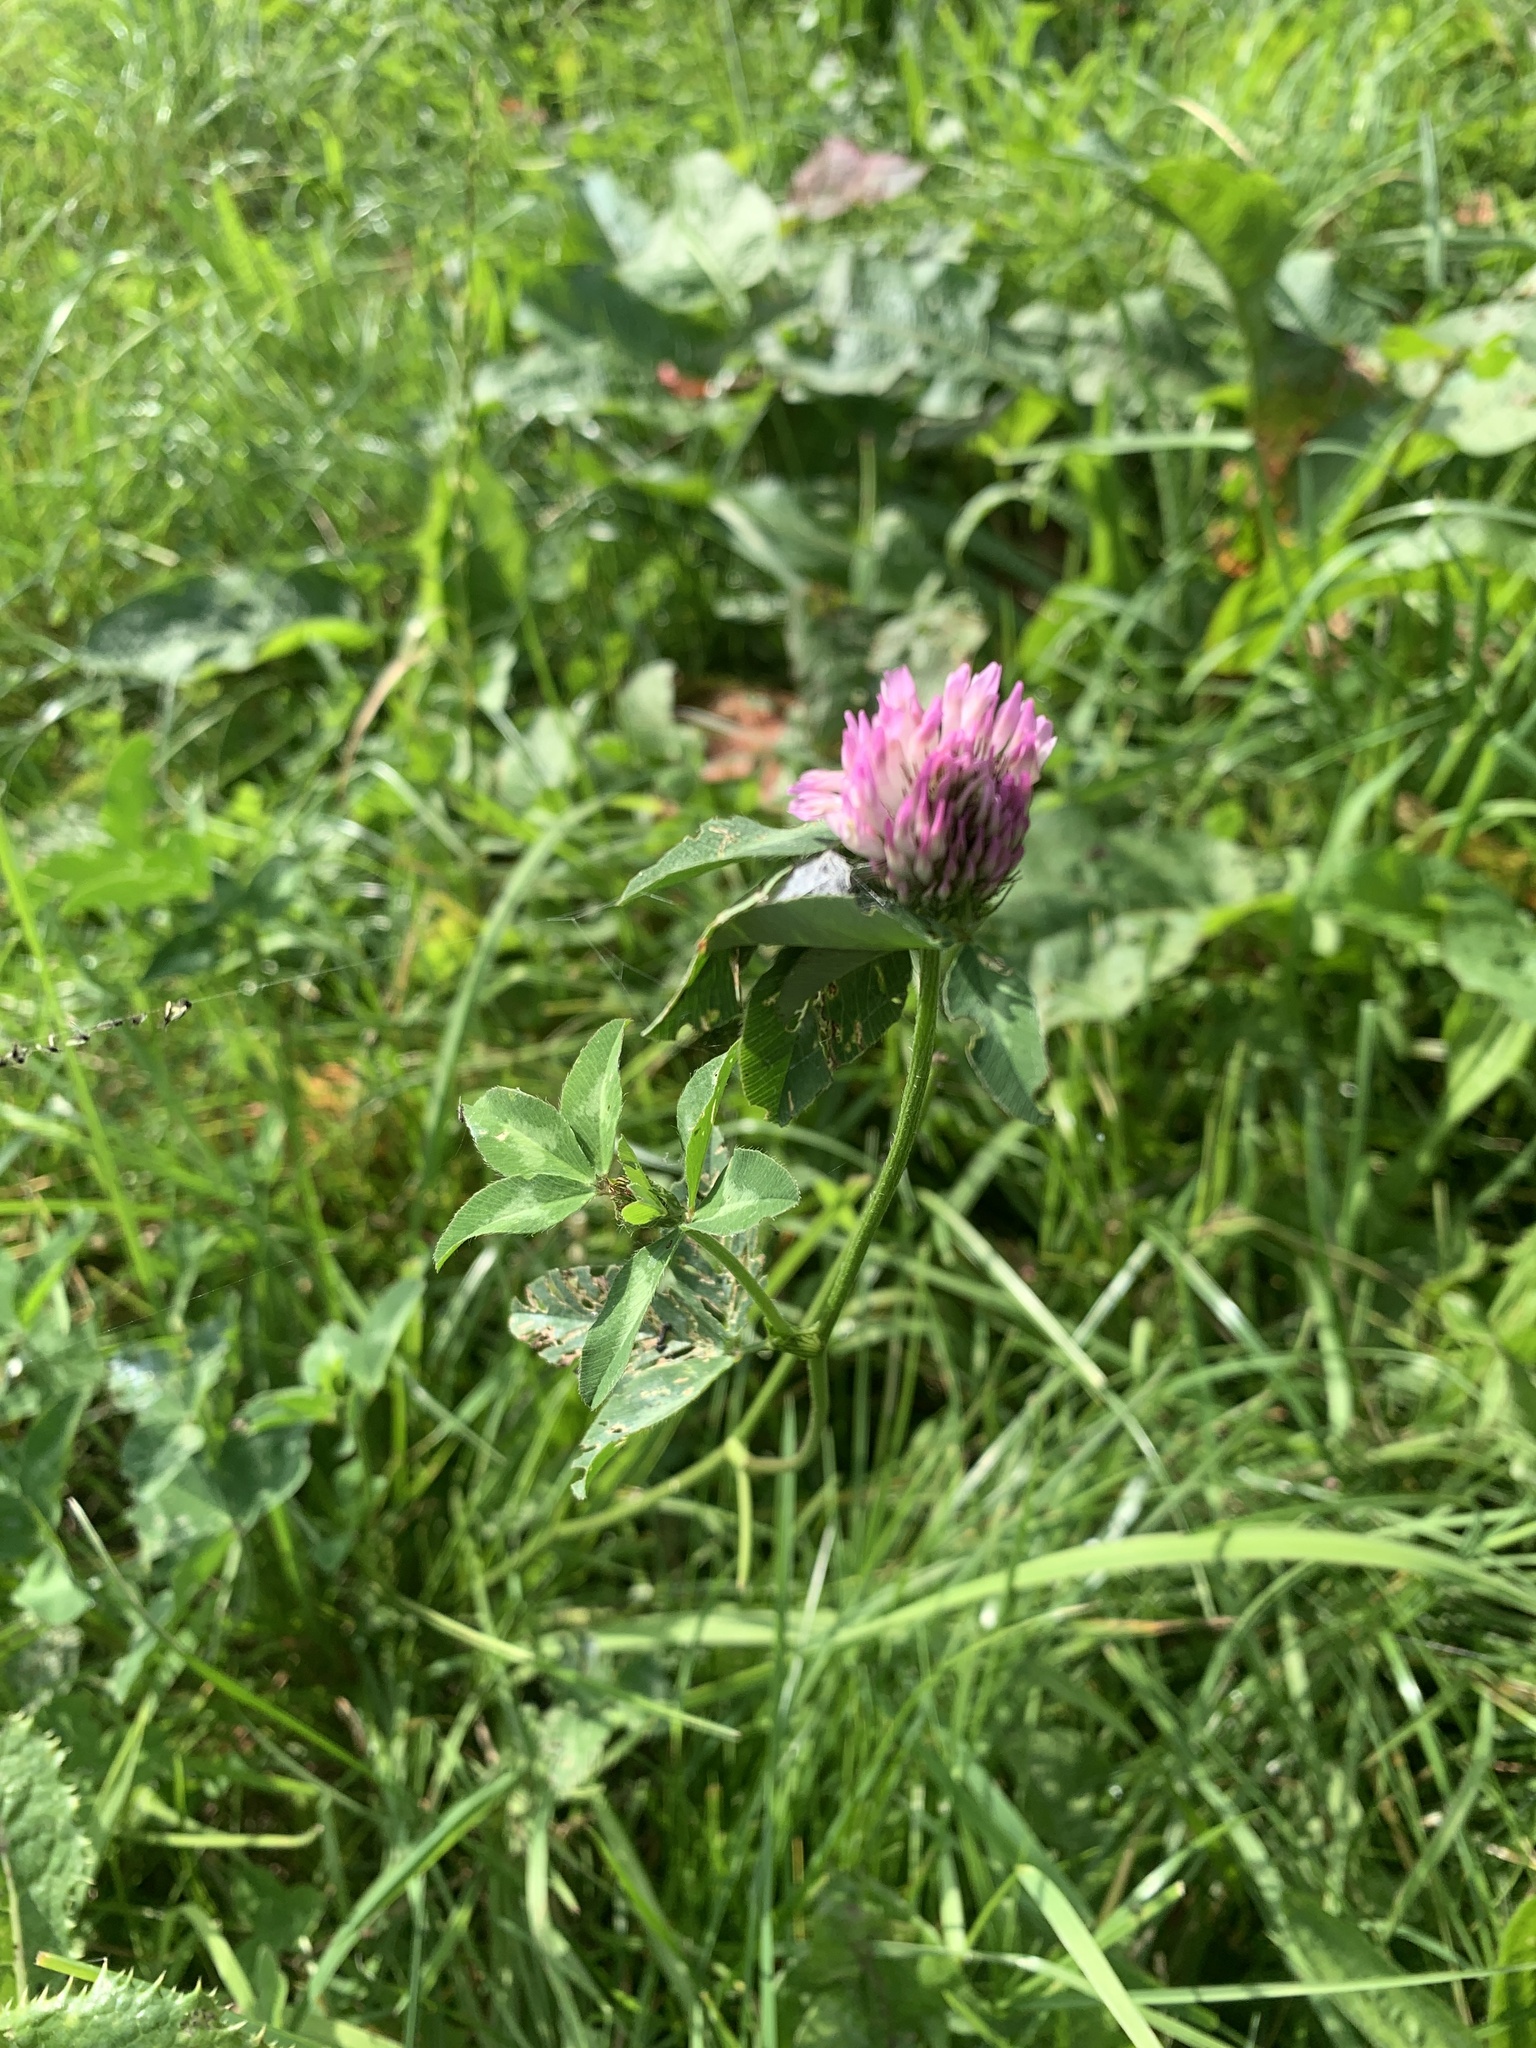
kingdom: Plantae
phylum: Tracheophyta
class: Magnoliopsida
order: Fabales
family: Fabaceae
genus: Trifolium
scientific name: Trifolium pratense
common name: Red clover
